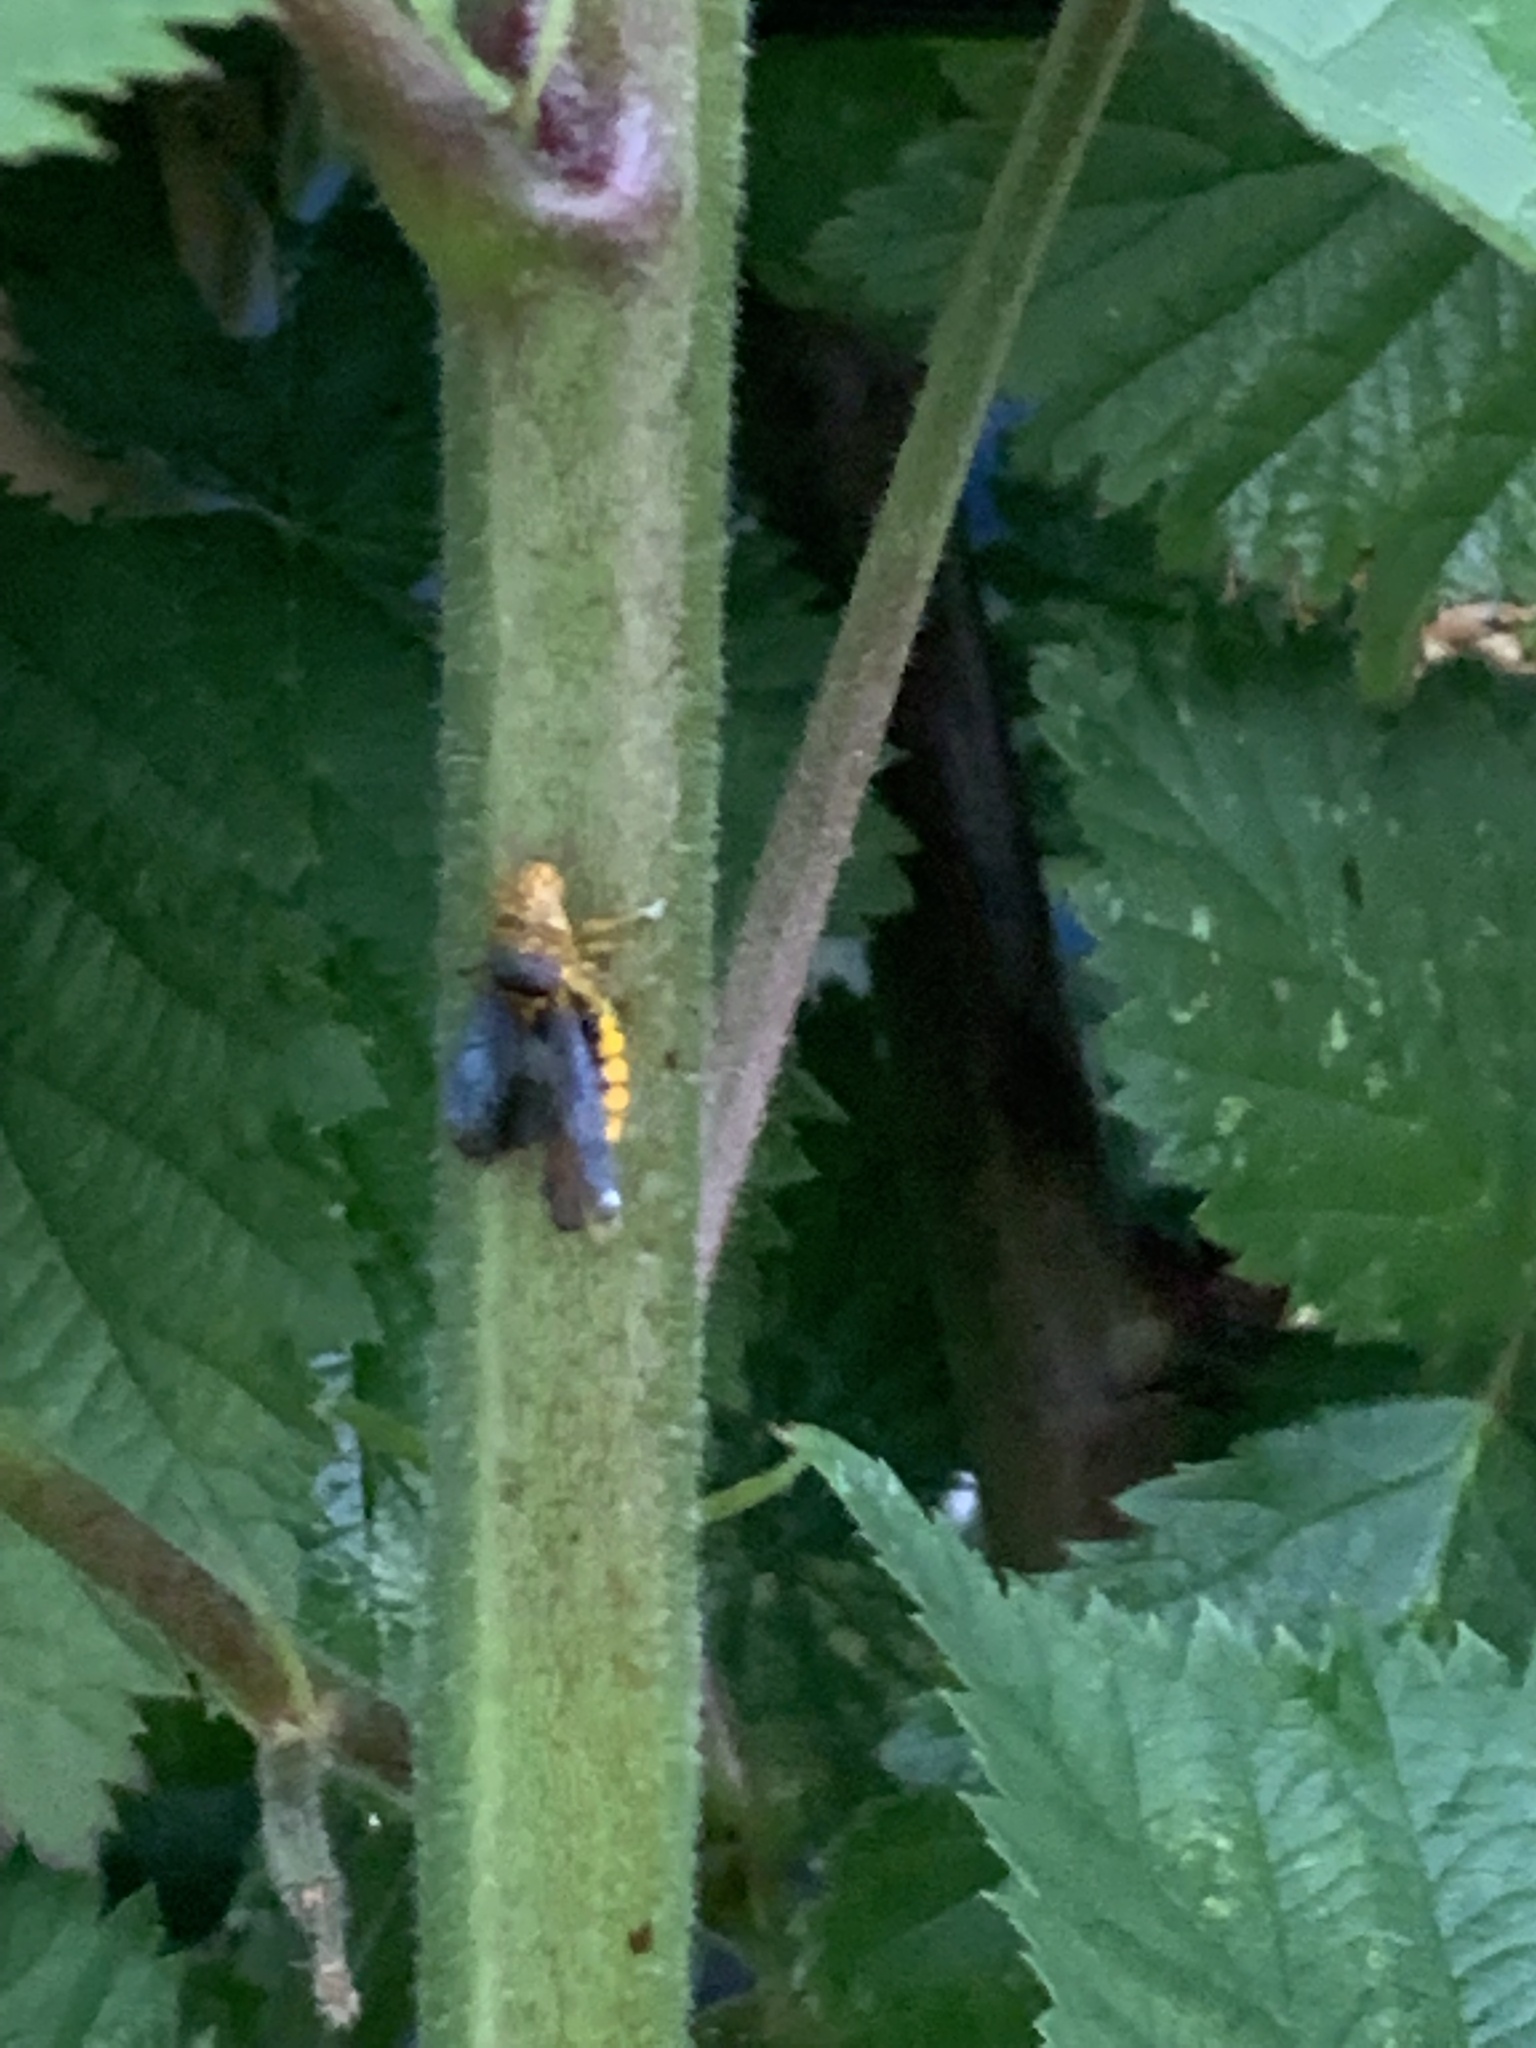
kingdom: Animalia
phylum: Arthropoda
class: Insecta
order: Hemiptera
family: Cicadellidae
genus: Oncometopia
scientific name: Oncometopia orbona
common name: Broad-headed sharpshooter
